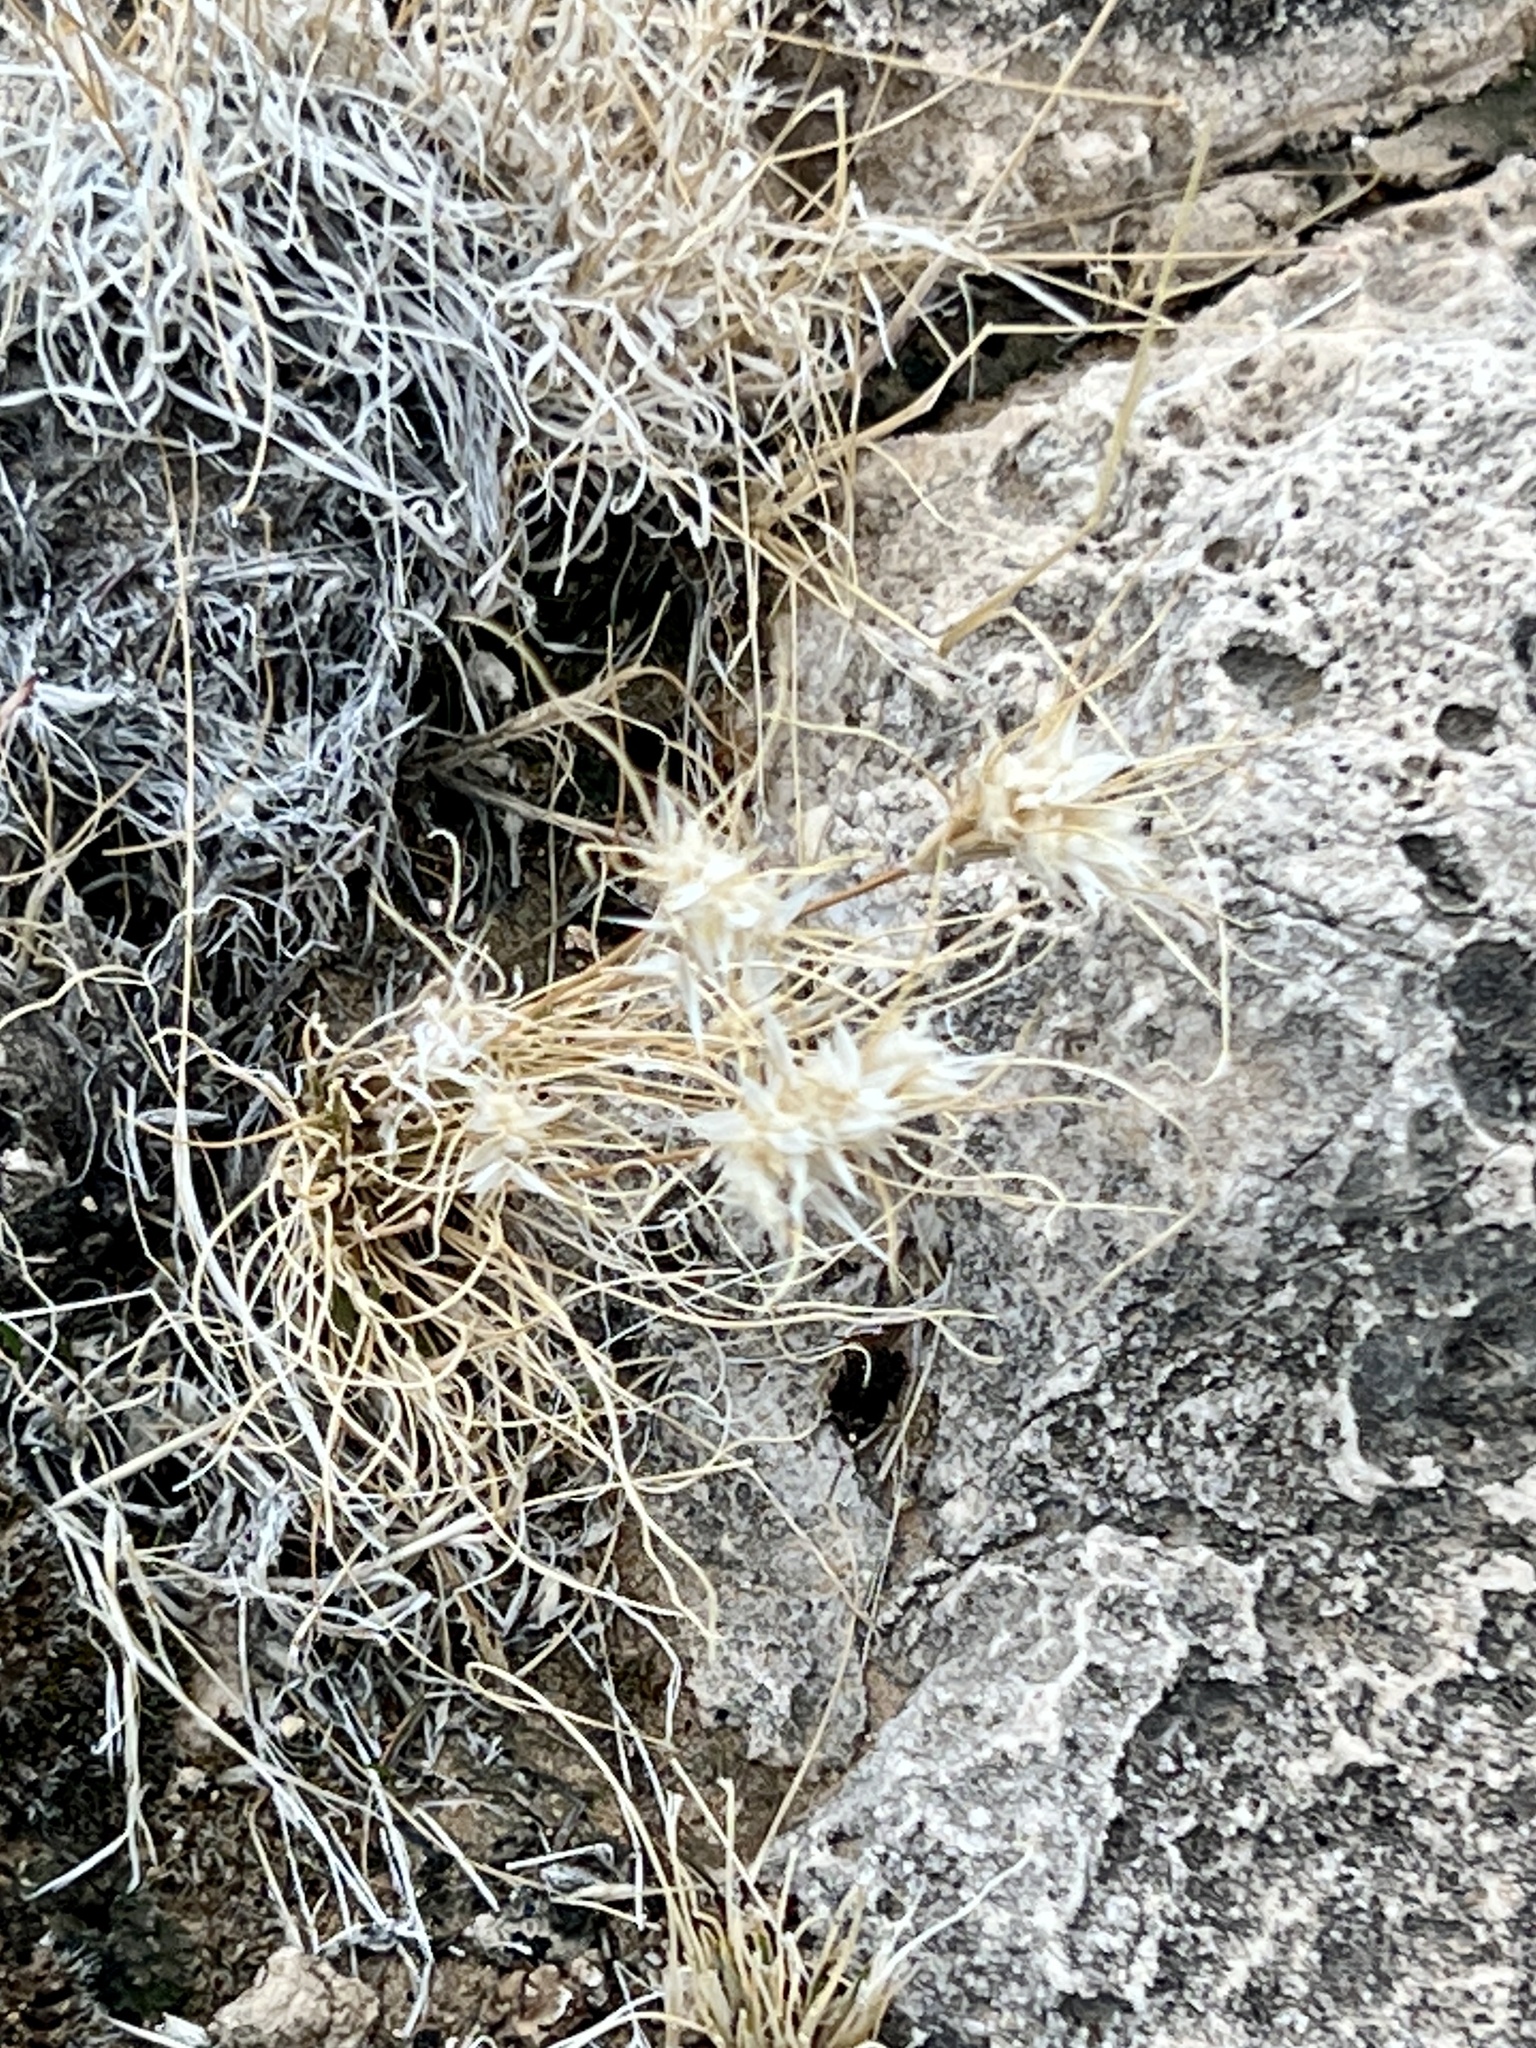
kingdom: Plantae
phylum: Tracheophyta
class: Liliopsida
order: Poales
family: Poaceae
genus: Dasyochloa
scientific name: Dasyochloa pulchella
